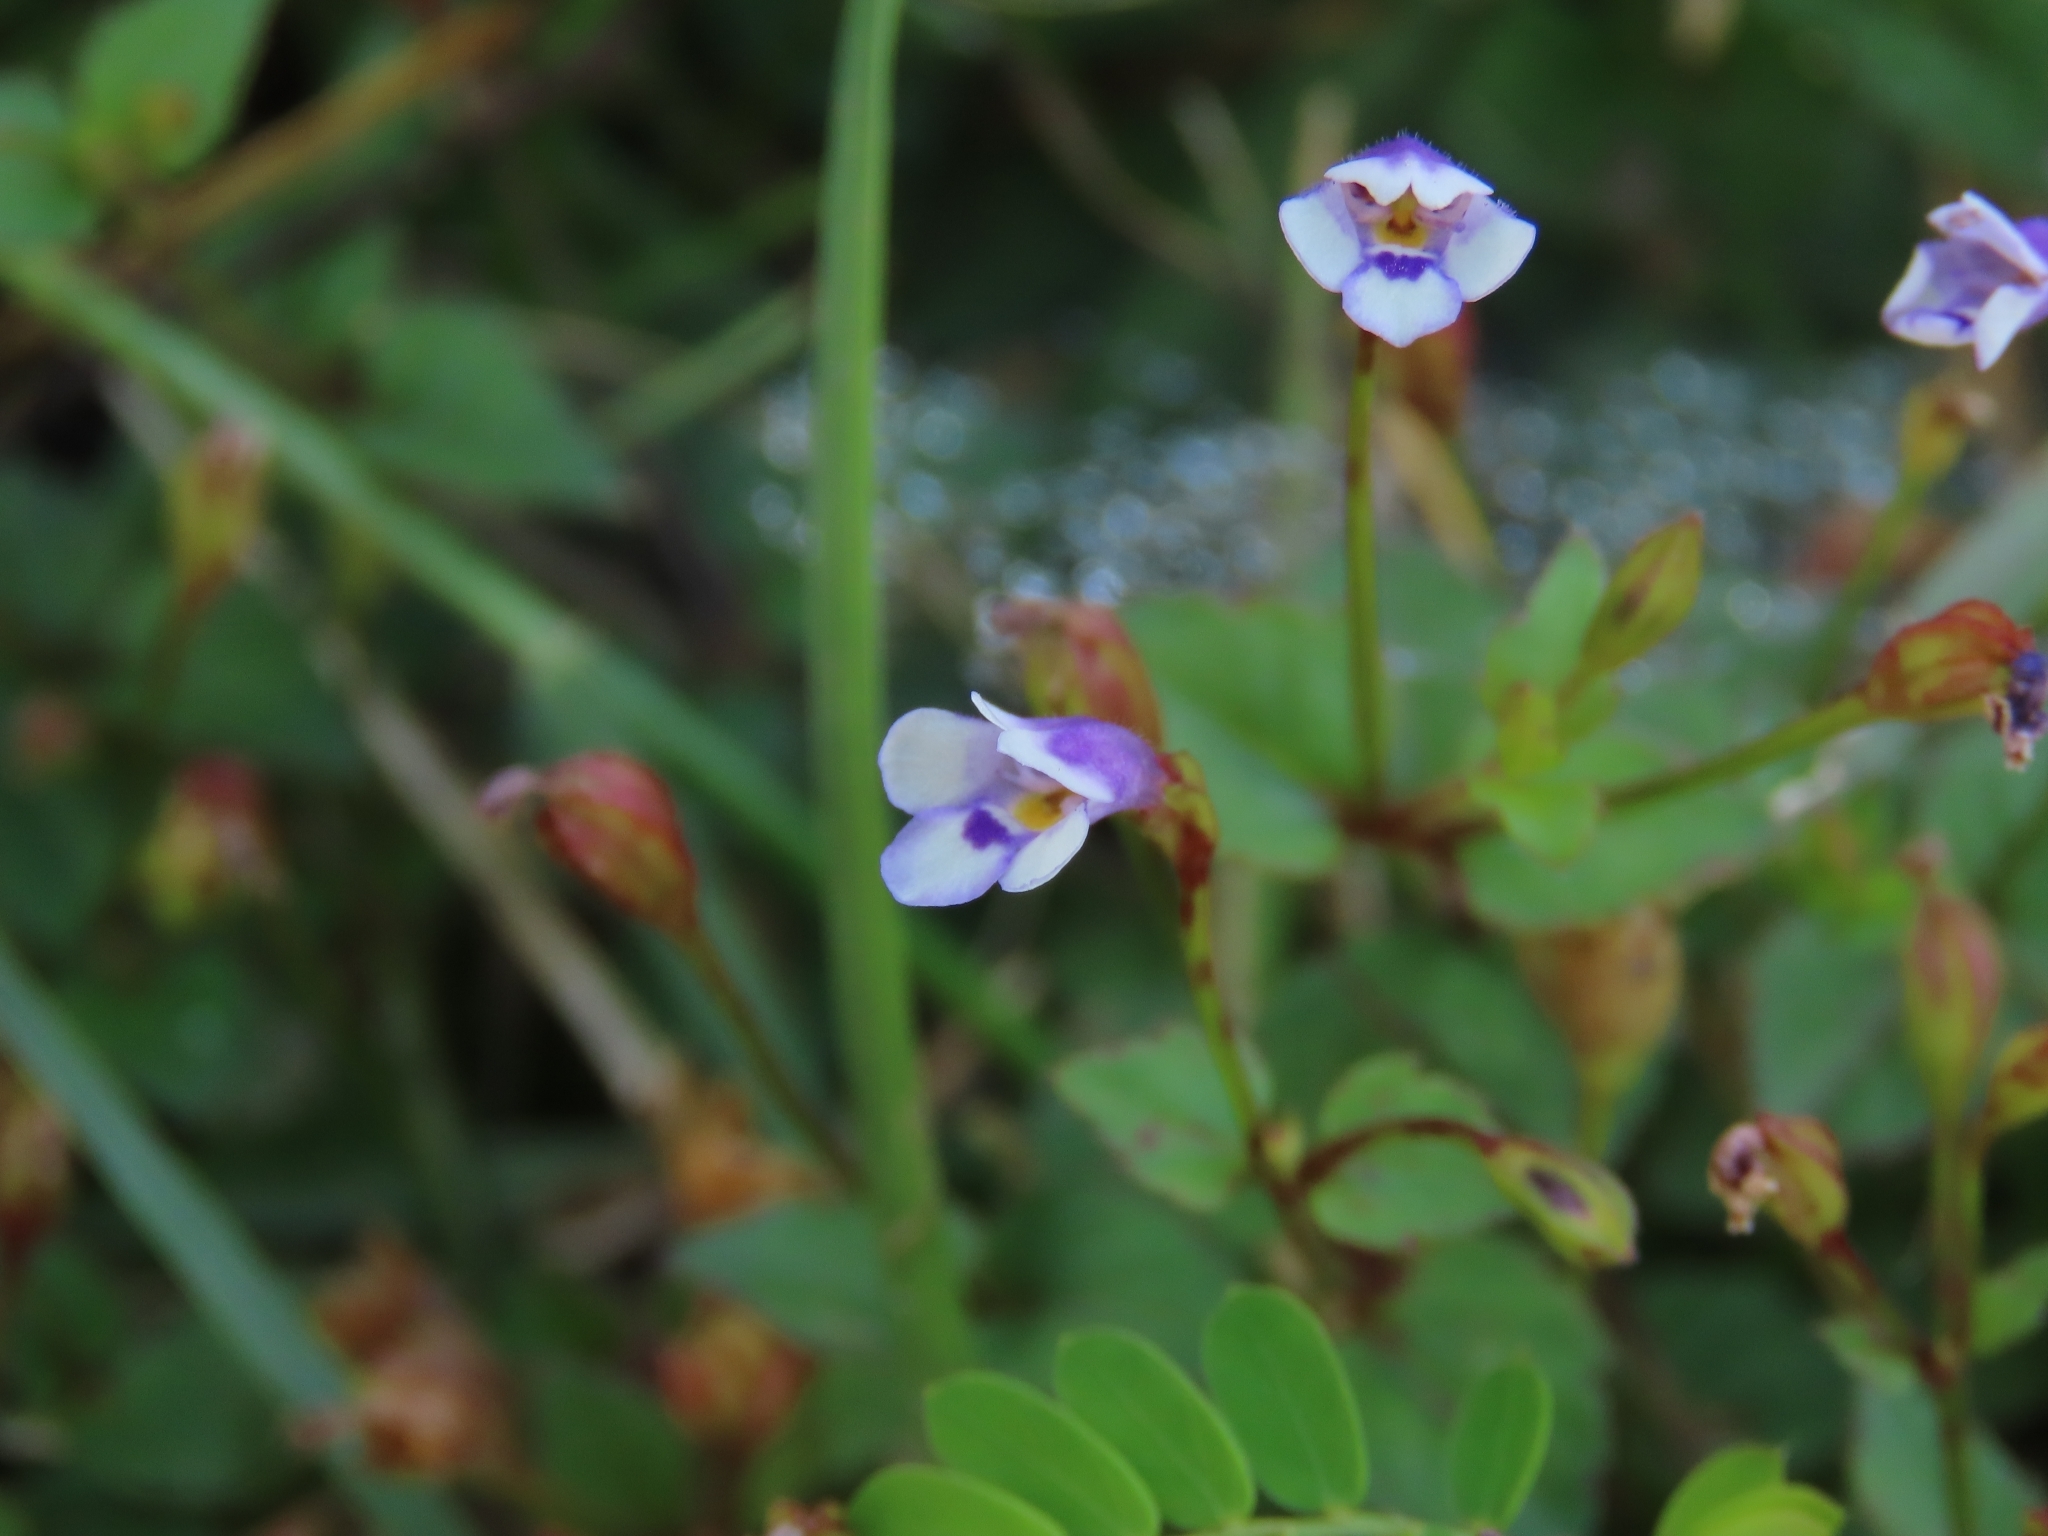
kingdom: Plantae
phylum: Tracheophyta
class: Magnoliopsida
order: Lamiales
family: Linderniaceae
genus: Torenia
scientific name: Torenia crustacea
